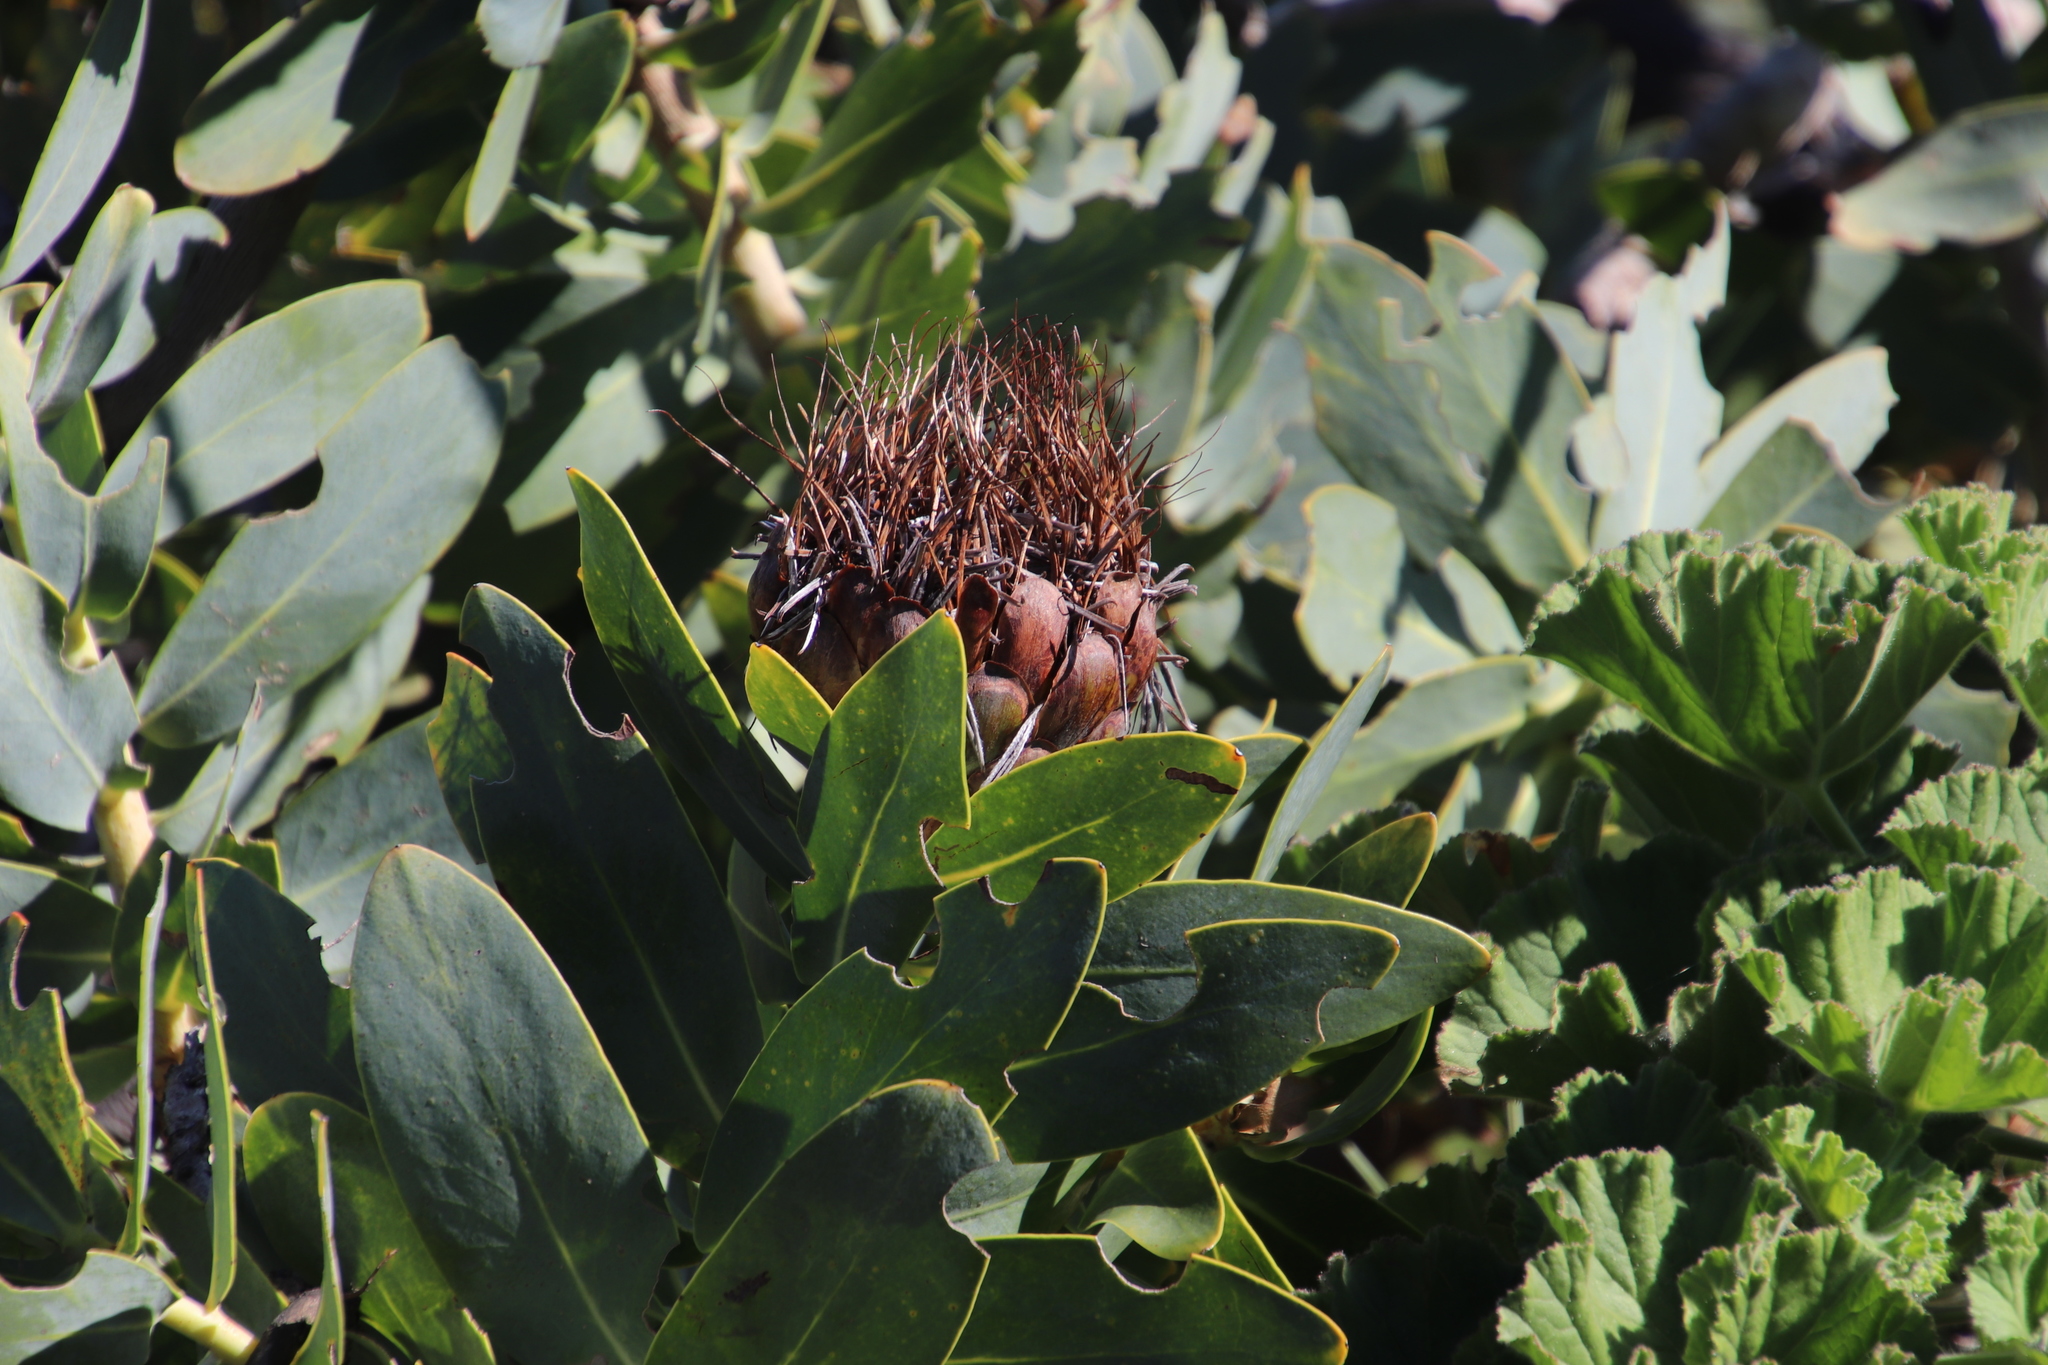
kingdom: Plantae
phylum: Tracheophyta
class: Magnoliopsida
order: Proteales
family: Proteaceae
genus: Protea
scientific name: Protea nitida
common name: Tree protea
